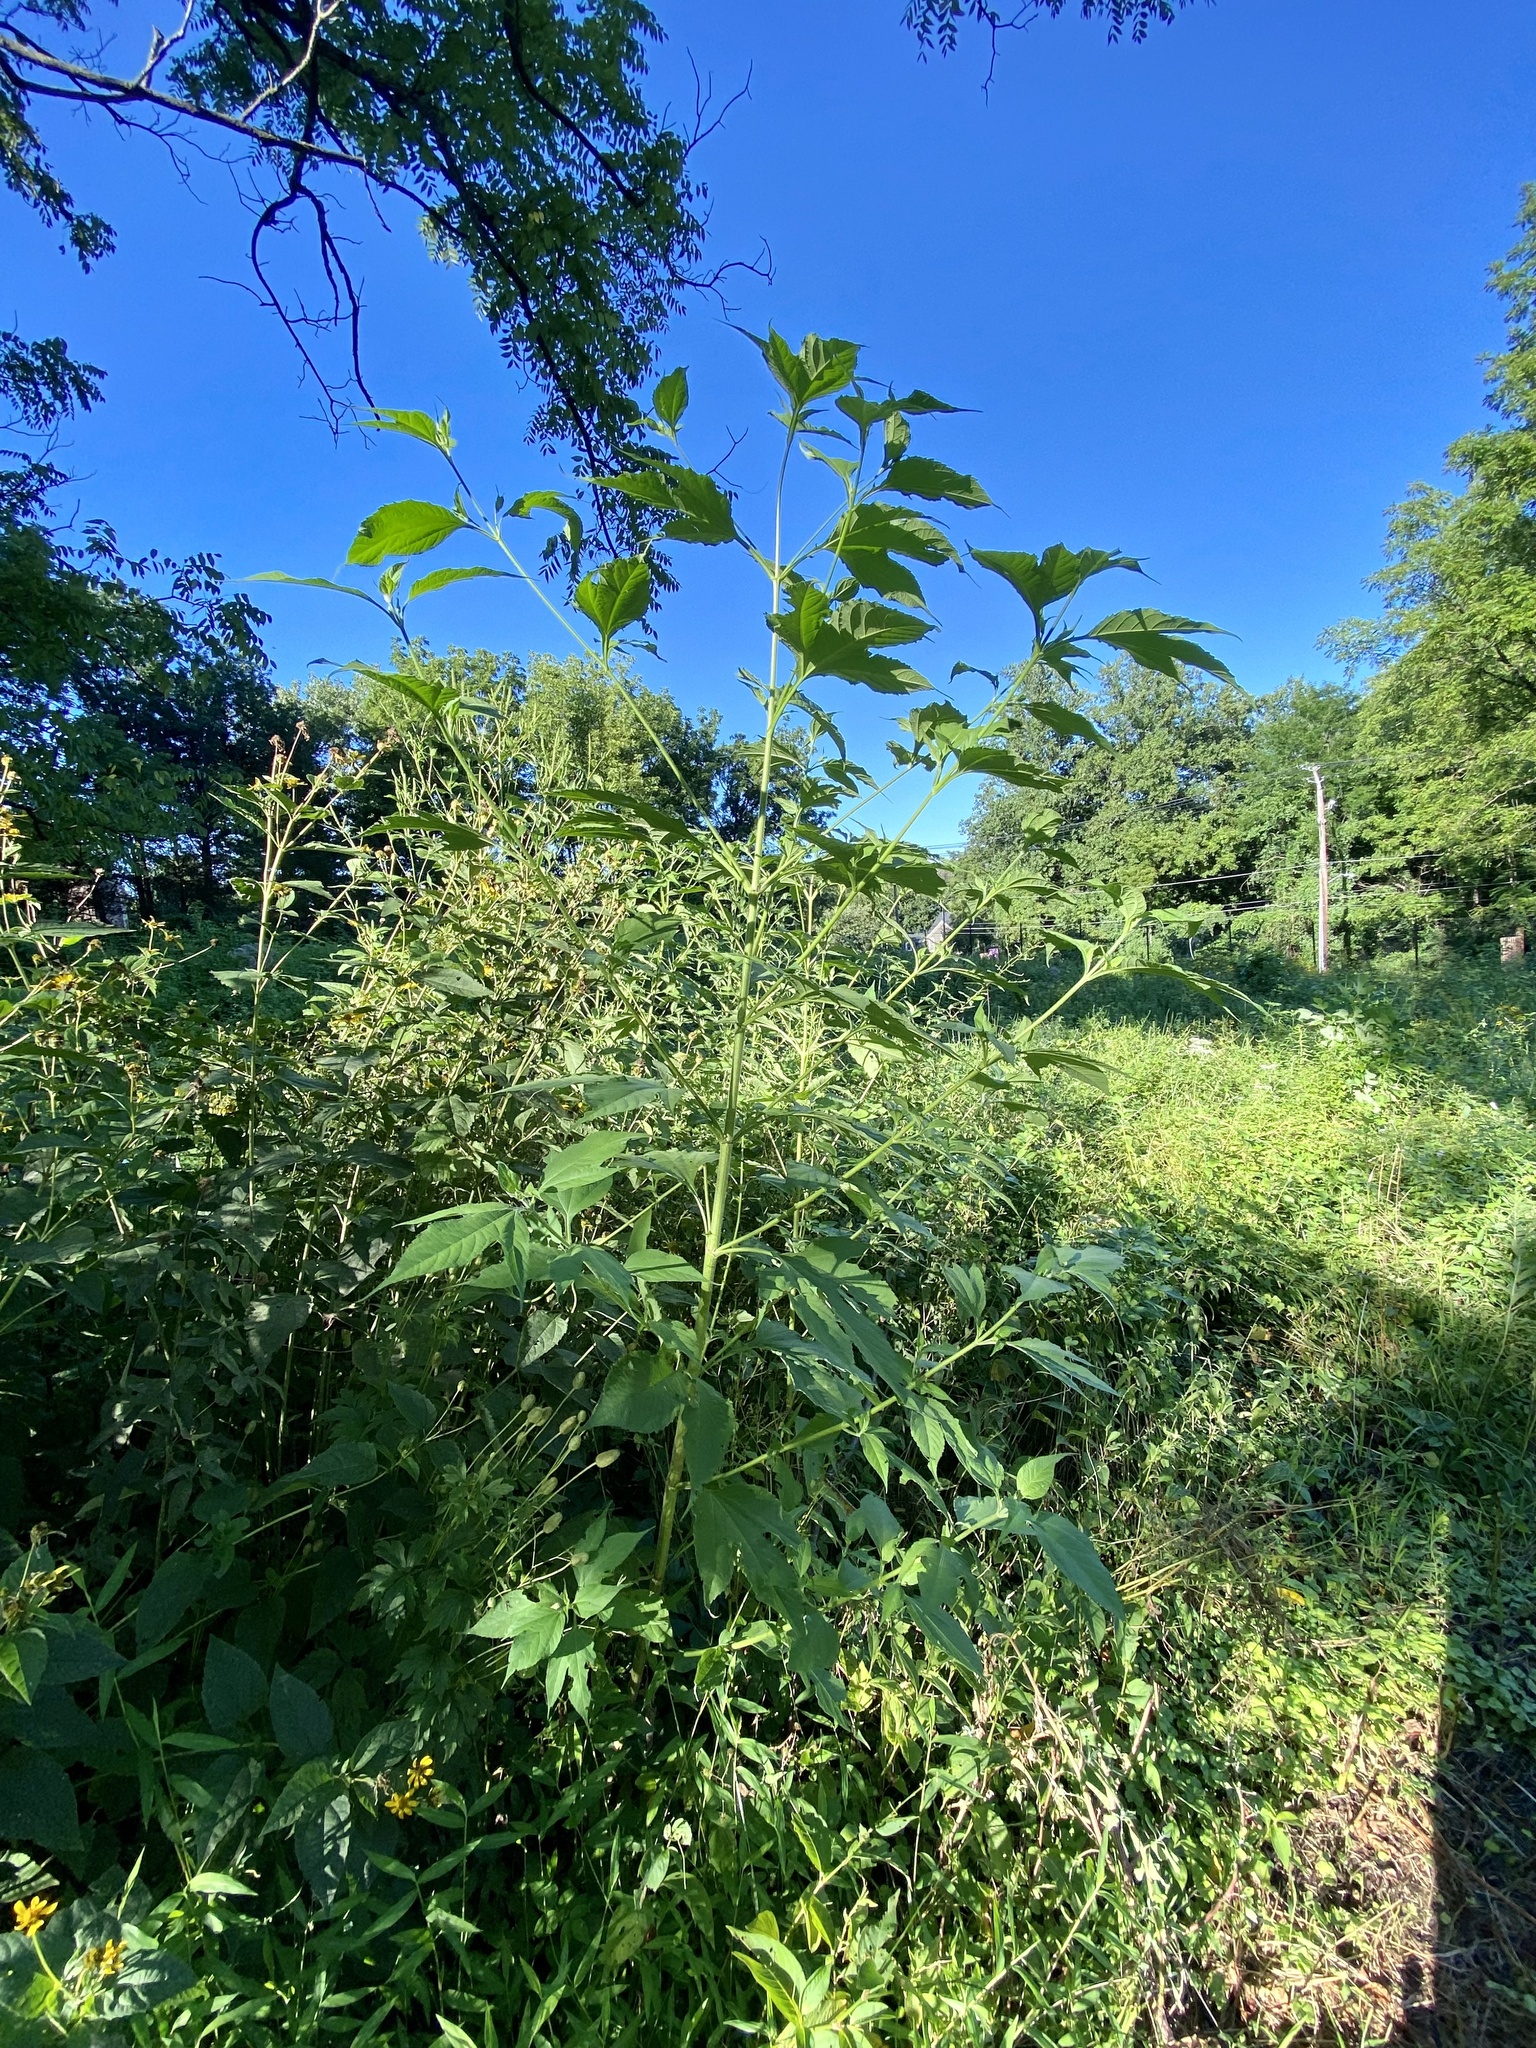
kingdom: Plantae
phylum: Tracheophyta
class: Magnoliopsida
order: Asterales
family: Asteraceae
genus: Ambrosia
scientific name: Ambrosia trifida
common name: Giant ragweed
